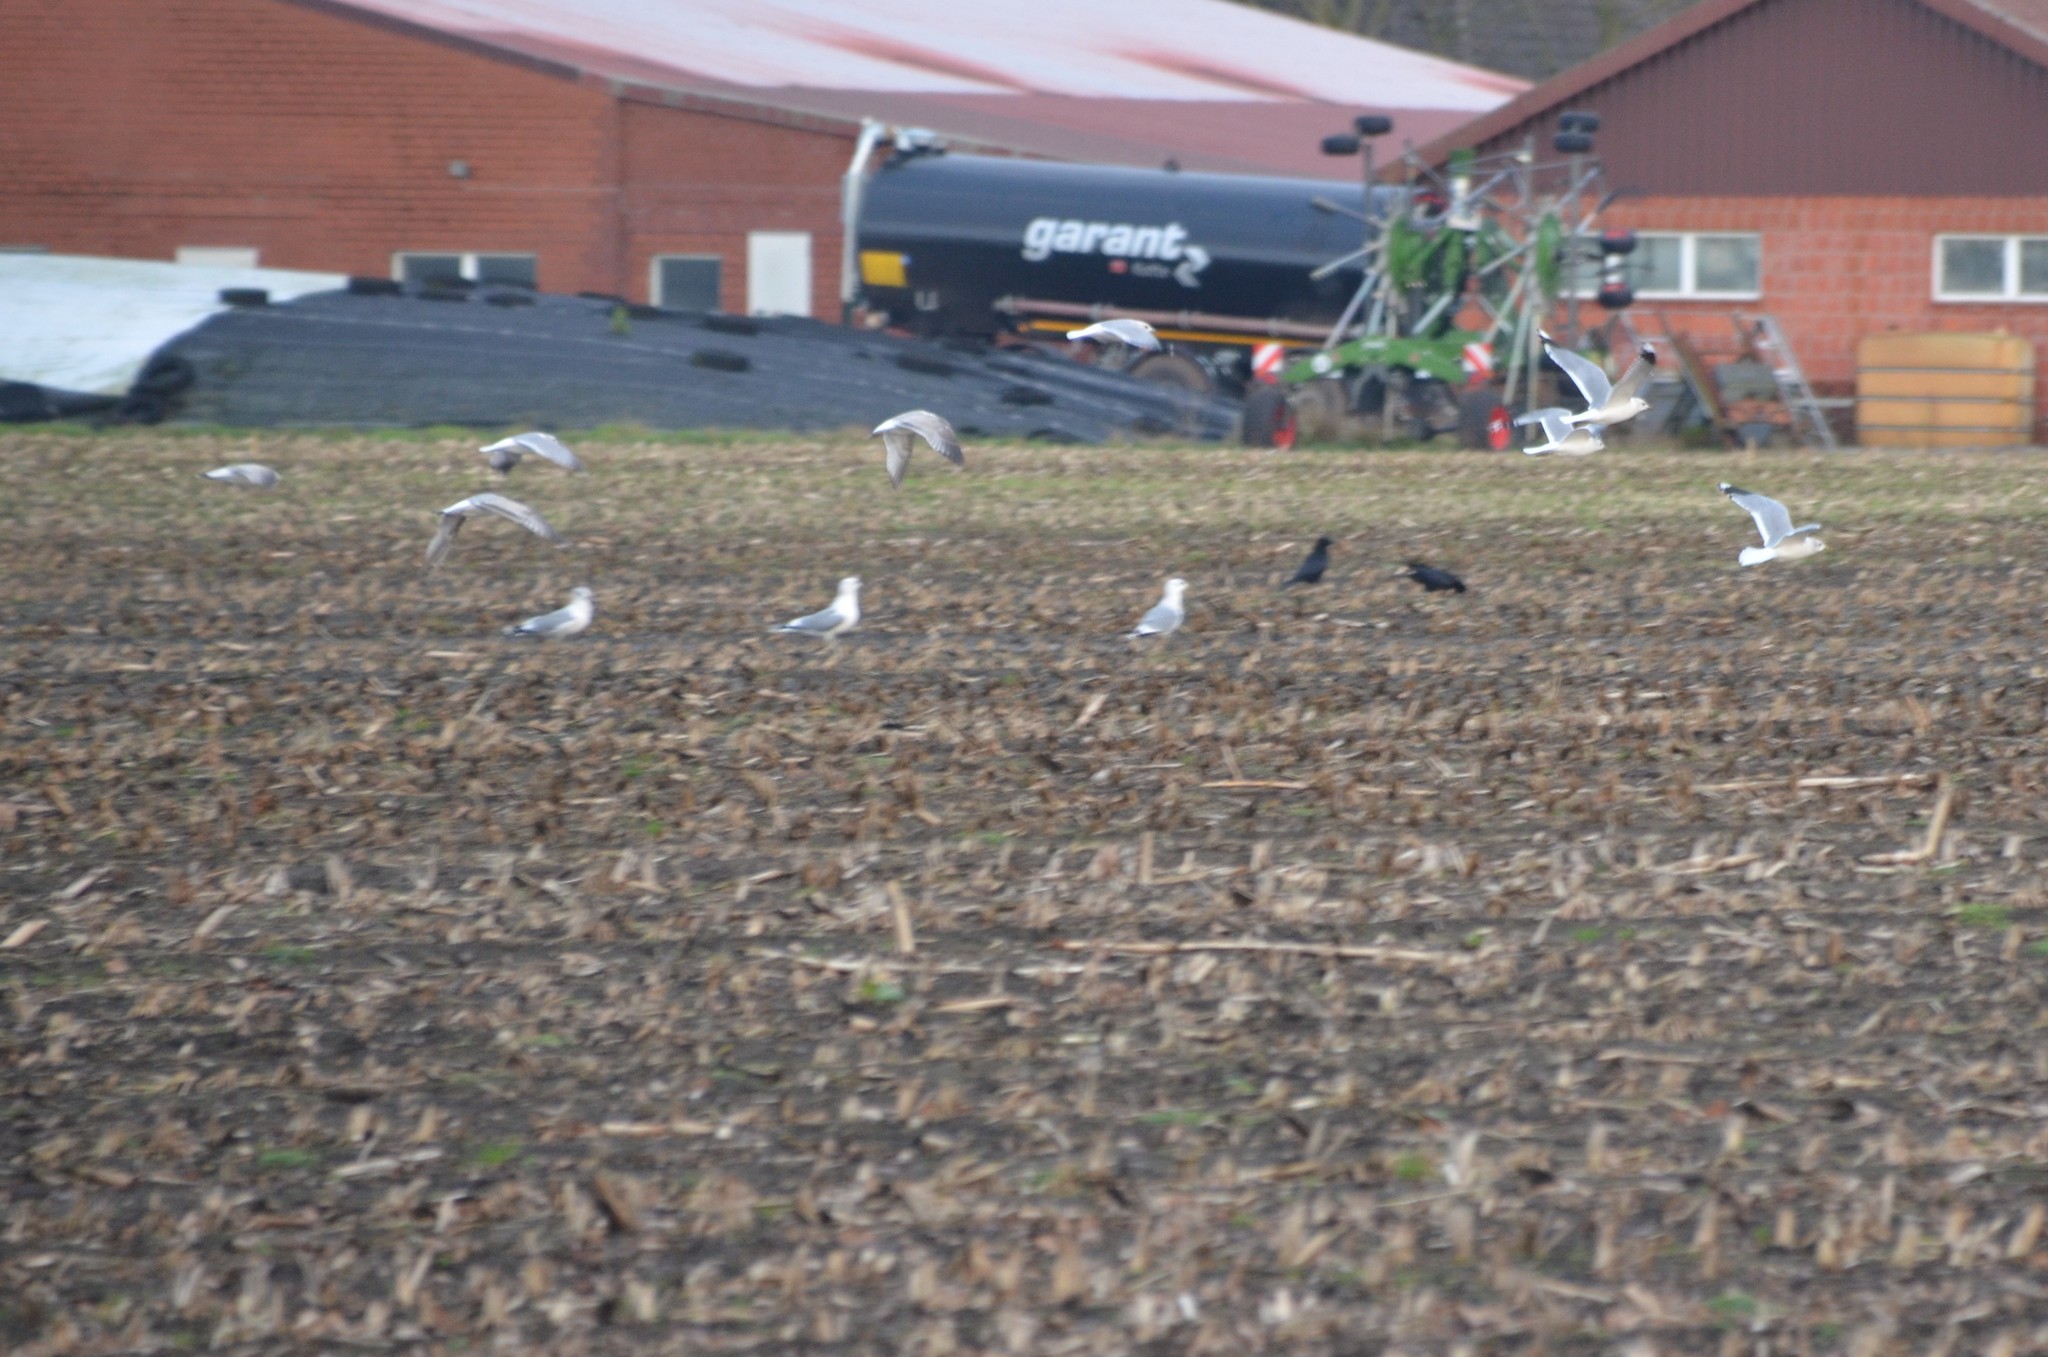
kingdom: Animalia
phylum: Chordata
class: Aves
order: Charadriiformes
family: Laridae
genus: Chroicocephalus
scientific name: Chroicocephalus ridibundus
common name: Black-headed gull
